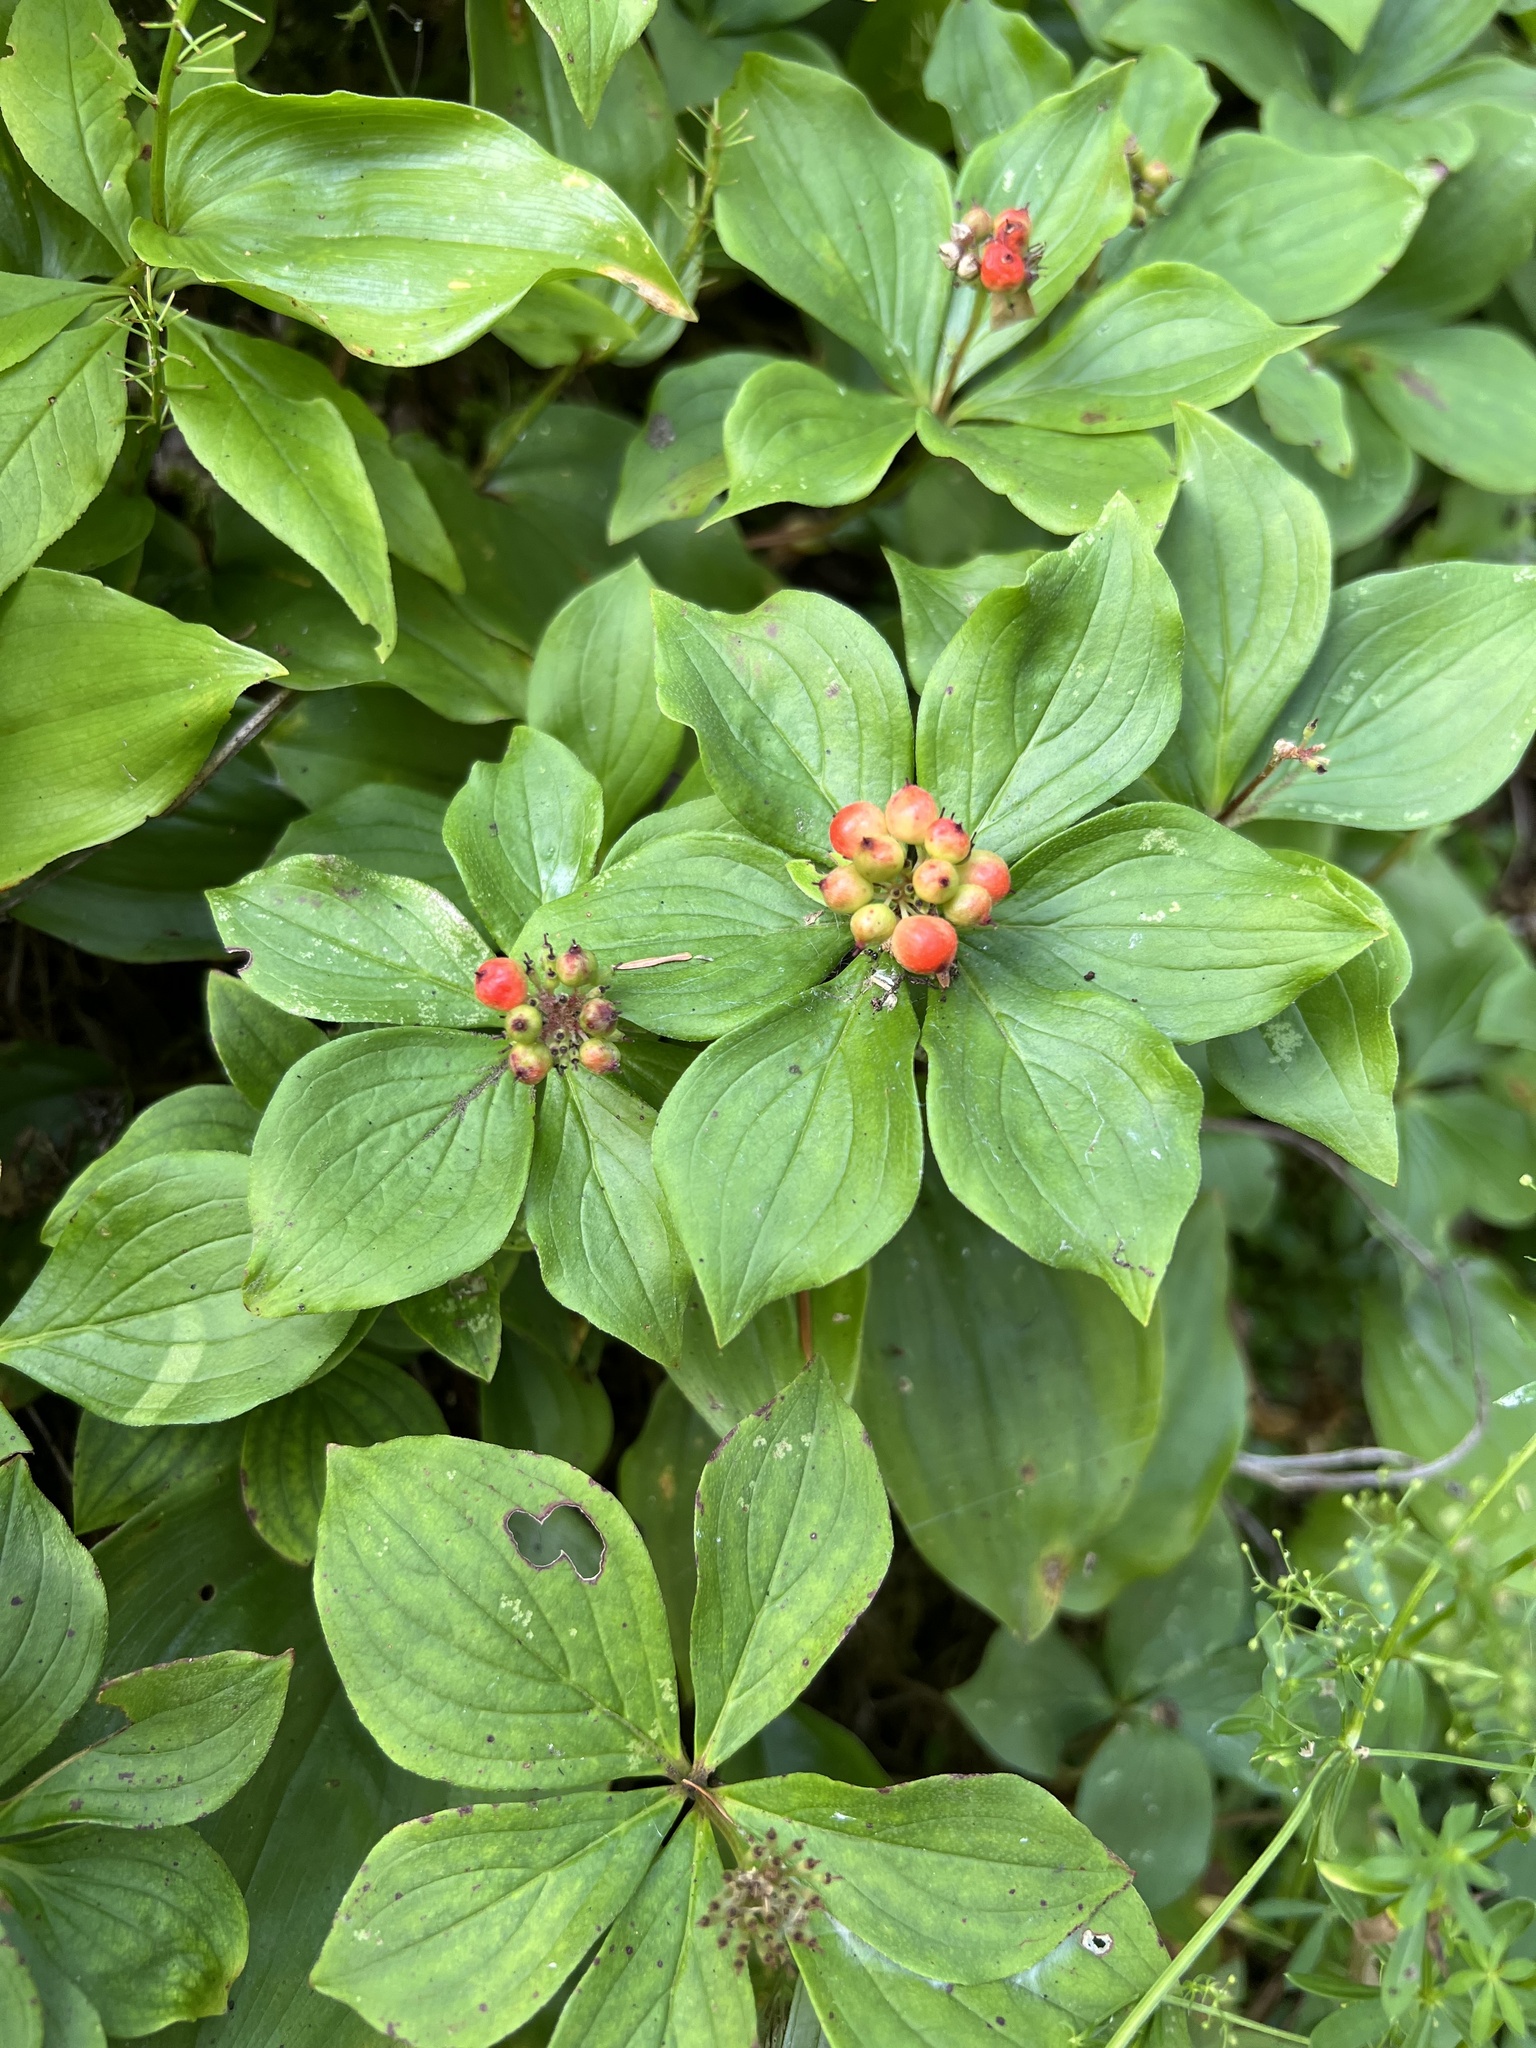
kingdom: Plantae
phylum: Tracheophyta
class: Magnoliopsida
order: Cornales
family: Cornaceae
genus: Cornus
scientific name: Cornus canadensis
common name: Creeping dogwood
